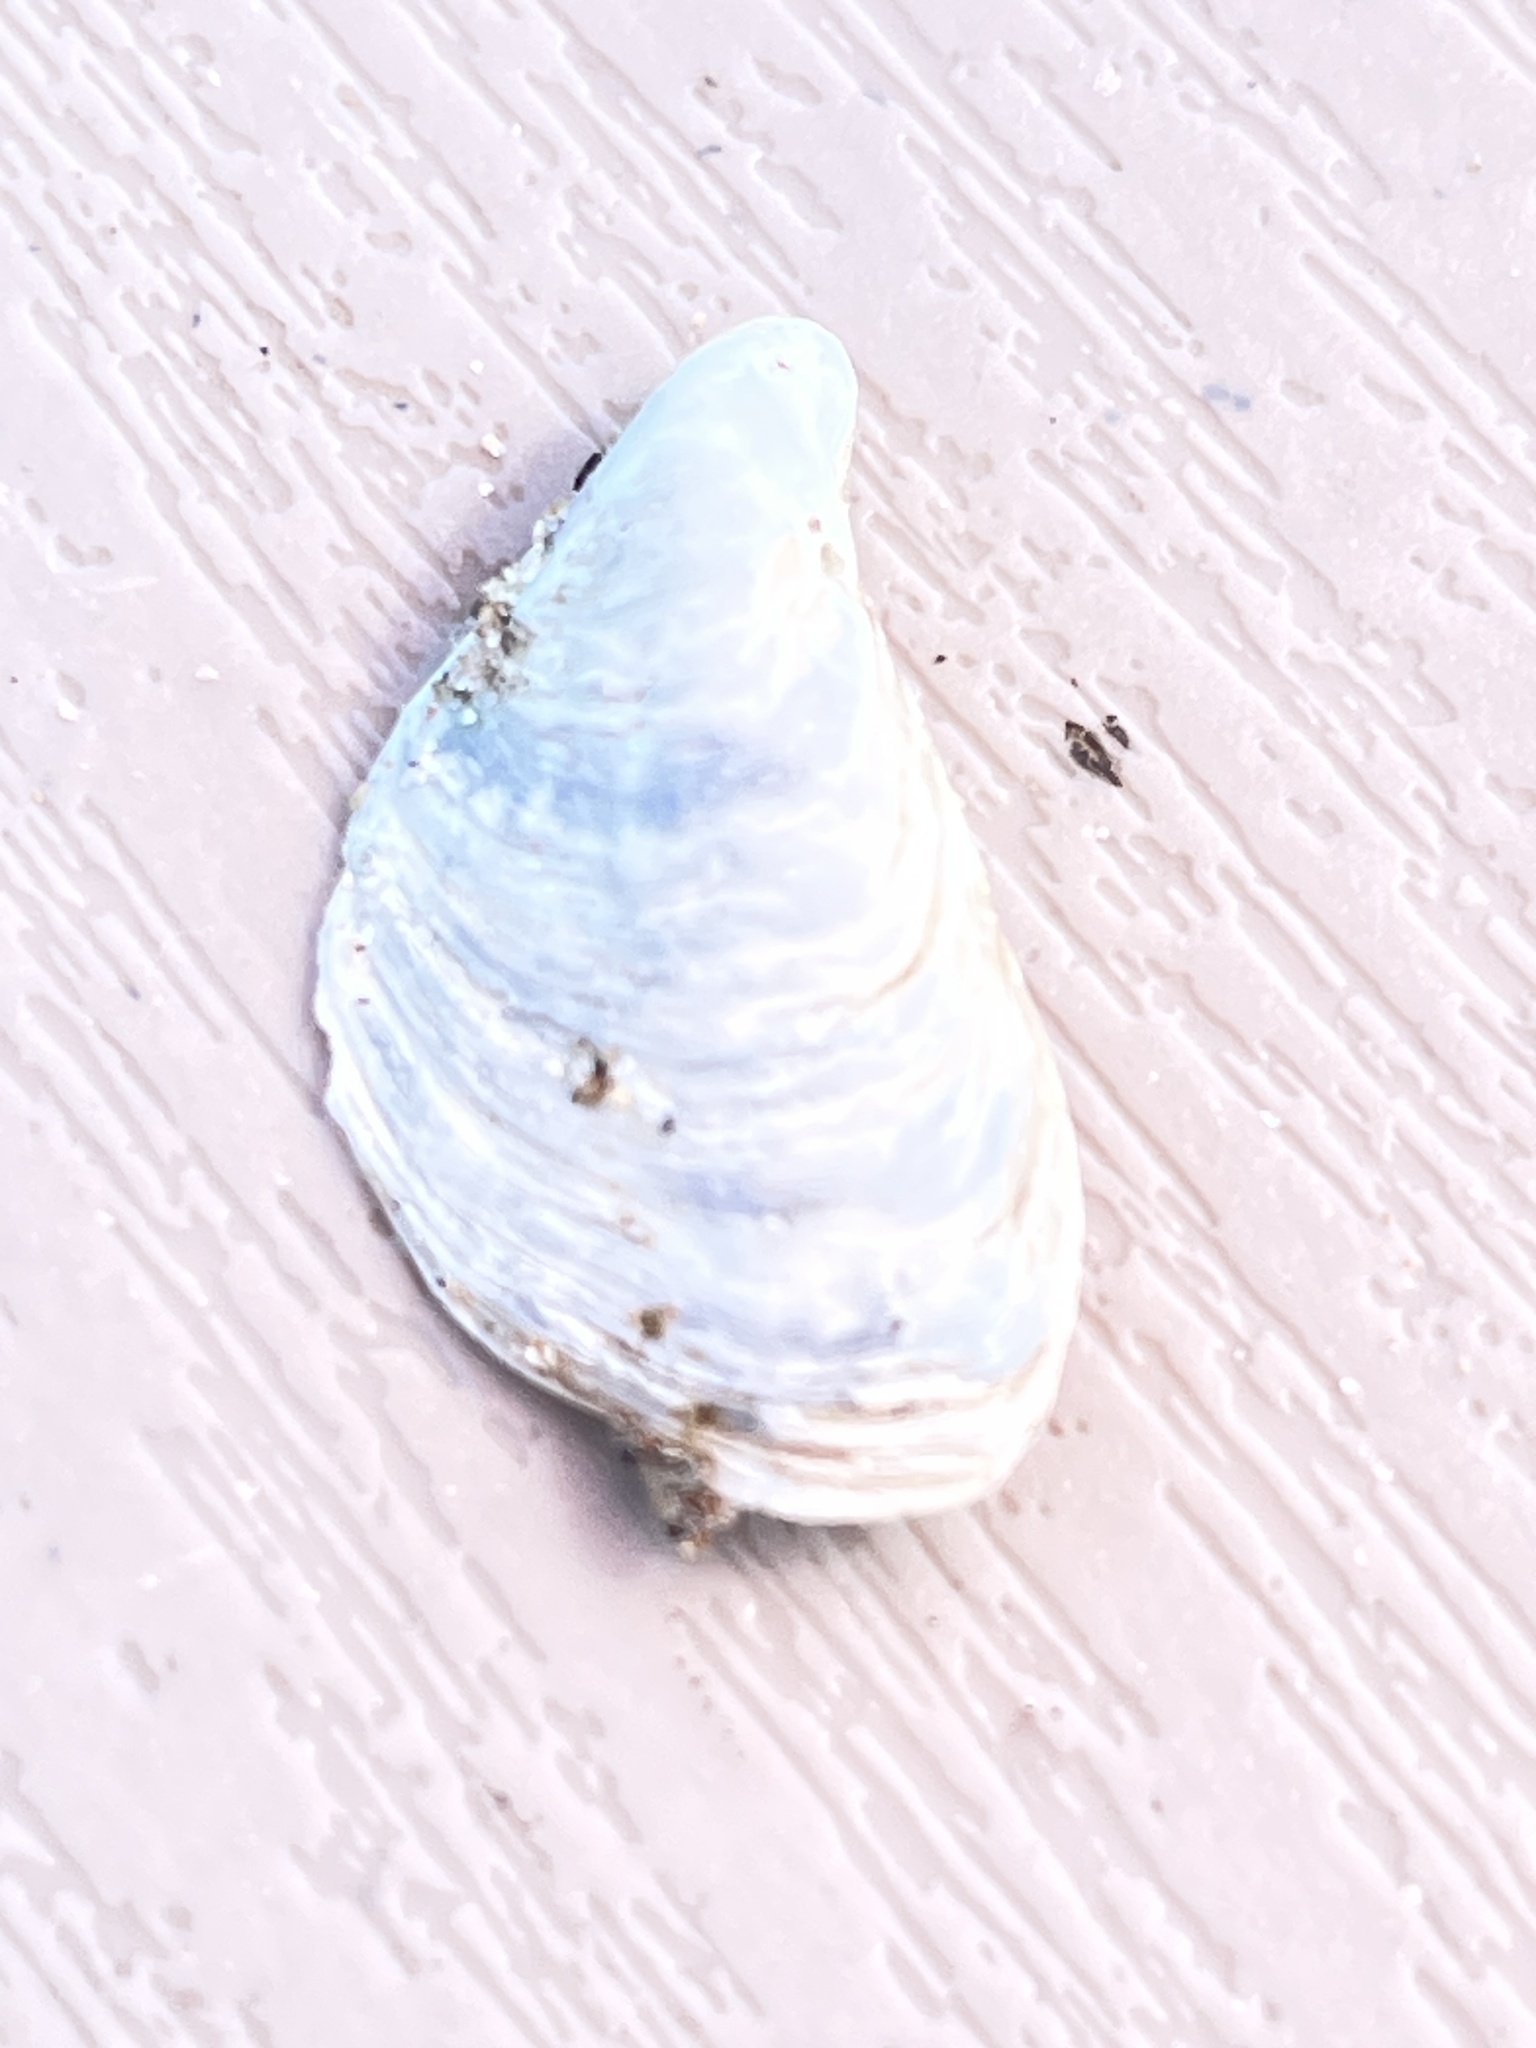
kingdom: Animalia
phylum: Mollusca
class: Bivalvia
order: Myida
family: Dreissenidae
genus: Dreissena
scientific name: Dreissena bugensis
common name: Quagga mussel
